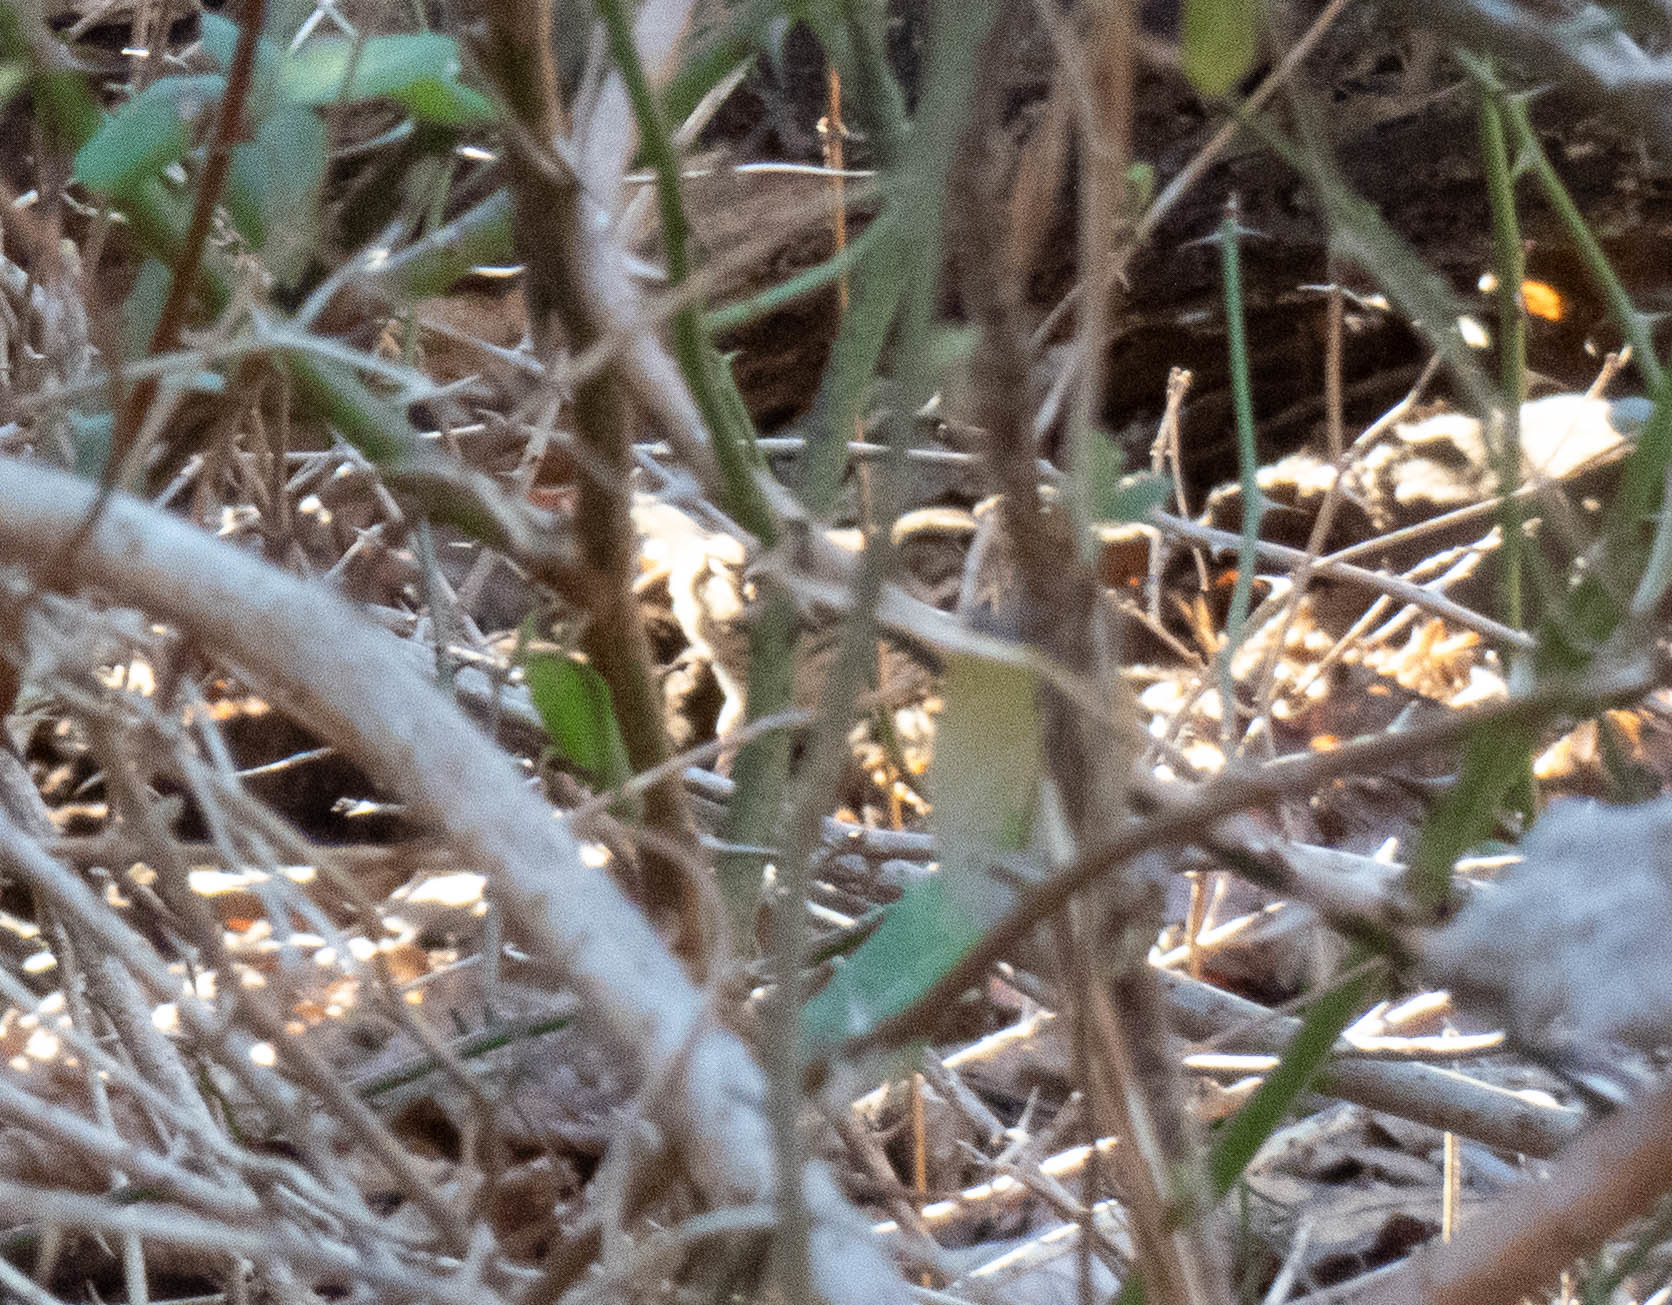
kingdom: Animalia
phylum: Chordata
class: Aves
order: Passeriformes
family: Passerellidae
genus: Melospiza
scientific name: Melospiza melodia
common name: Song sparrow
